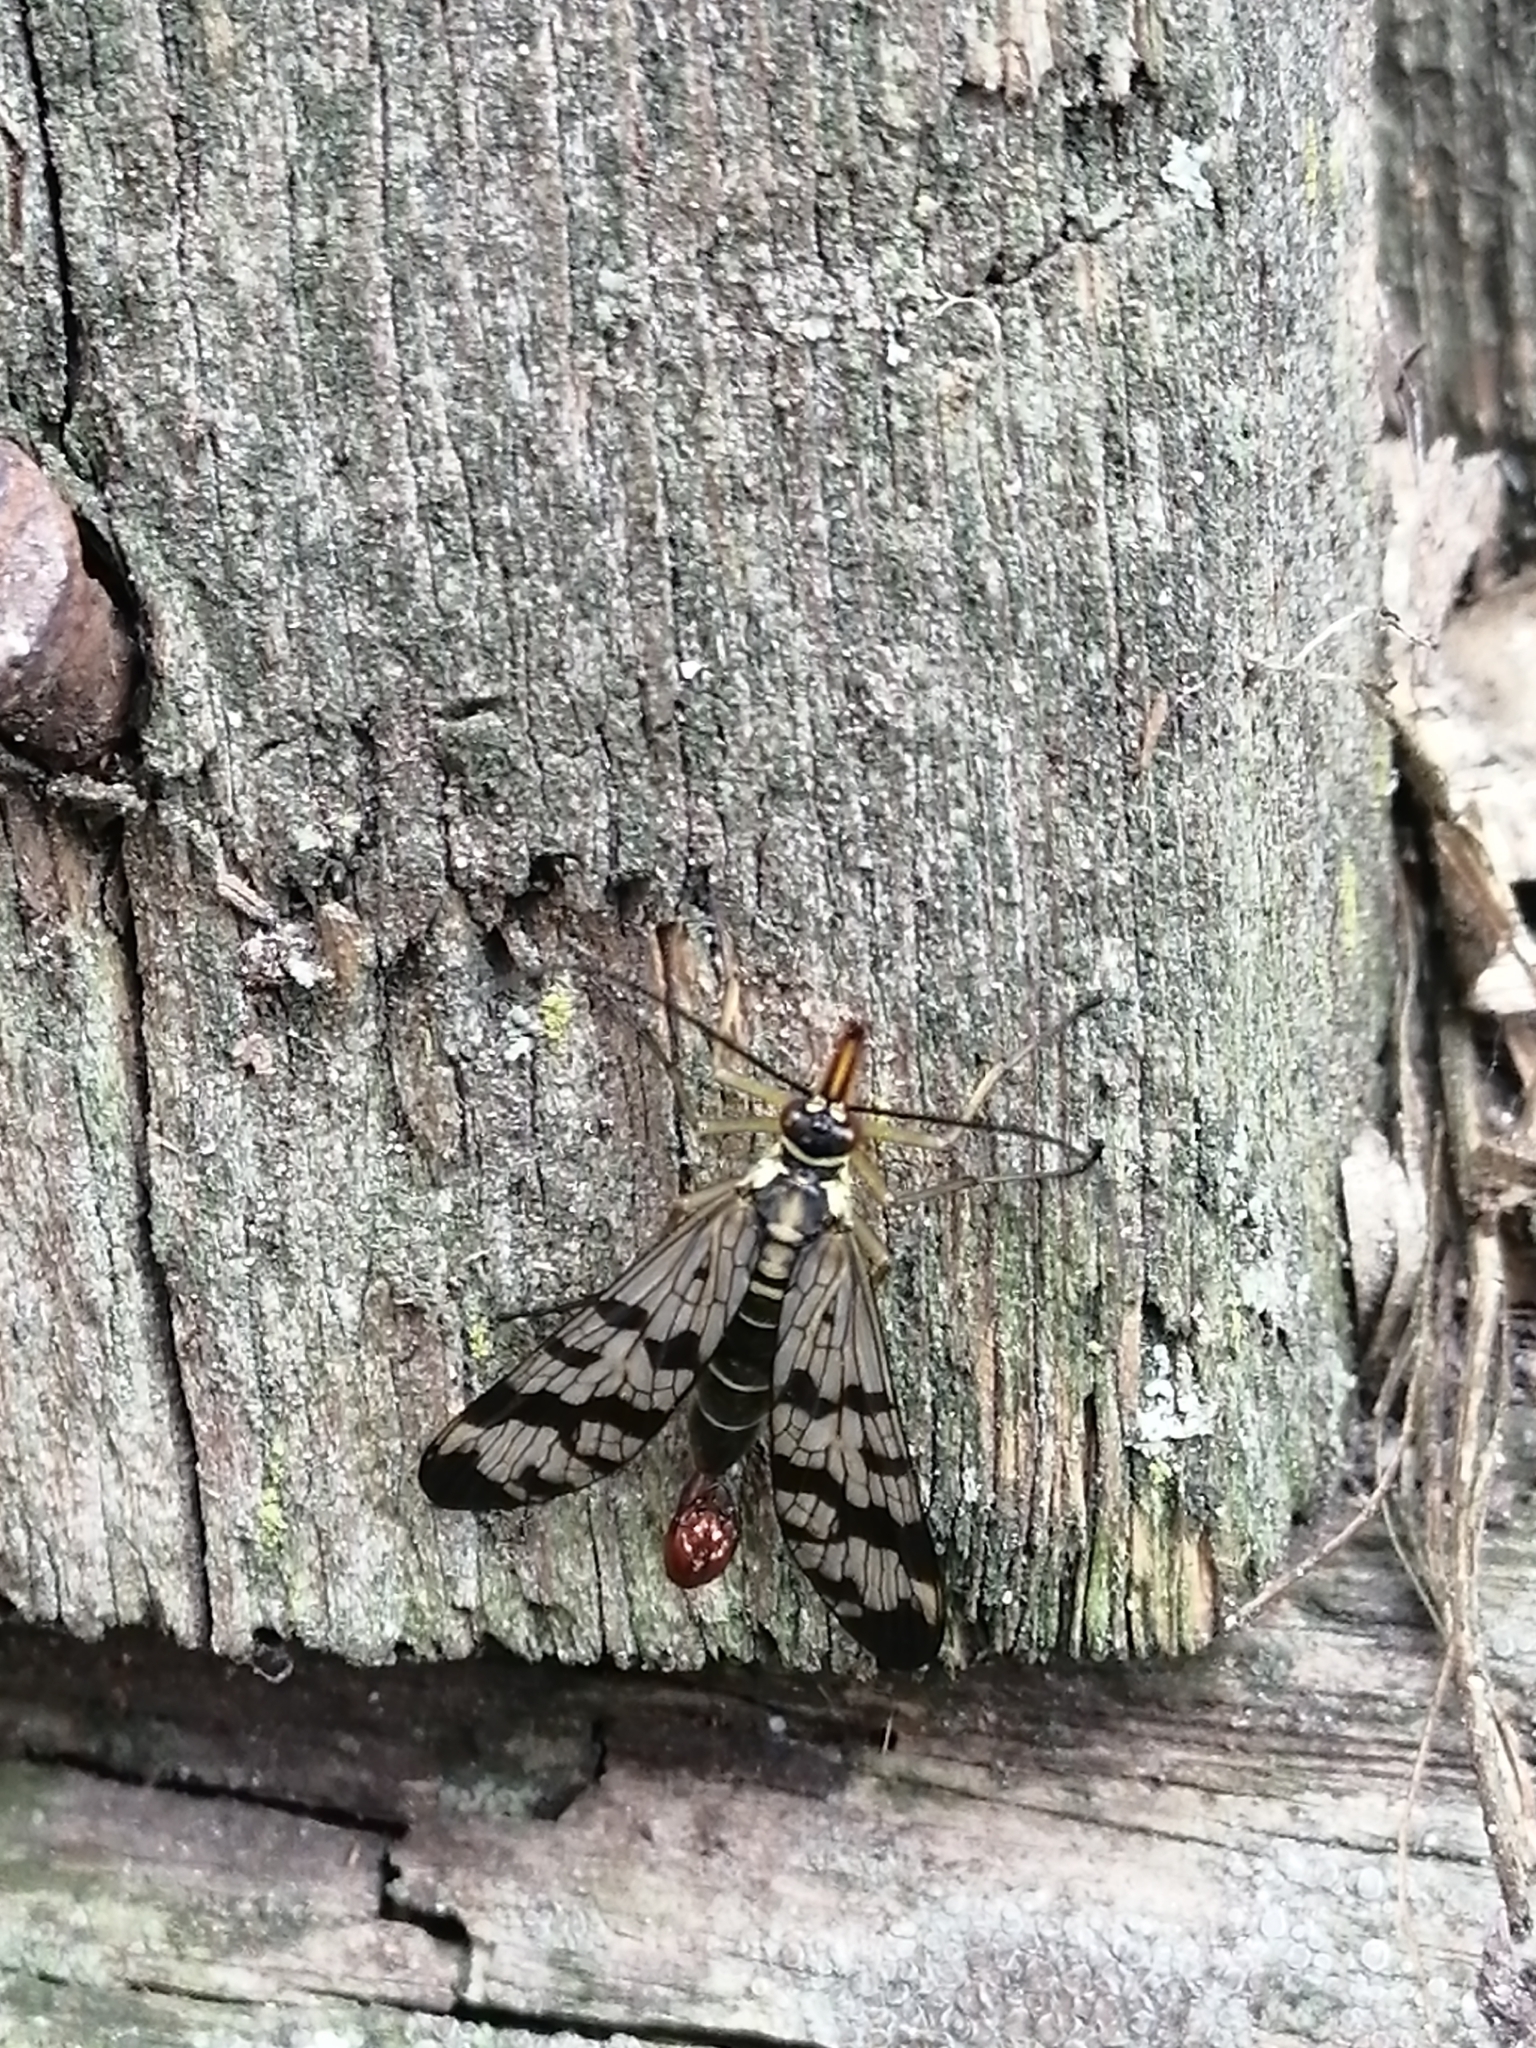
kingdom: Animalia
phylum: Arthropoda
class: Insecta
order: Mecoptera
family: Panorpidae
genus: Panorpa
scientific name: Panorpa communis
